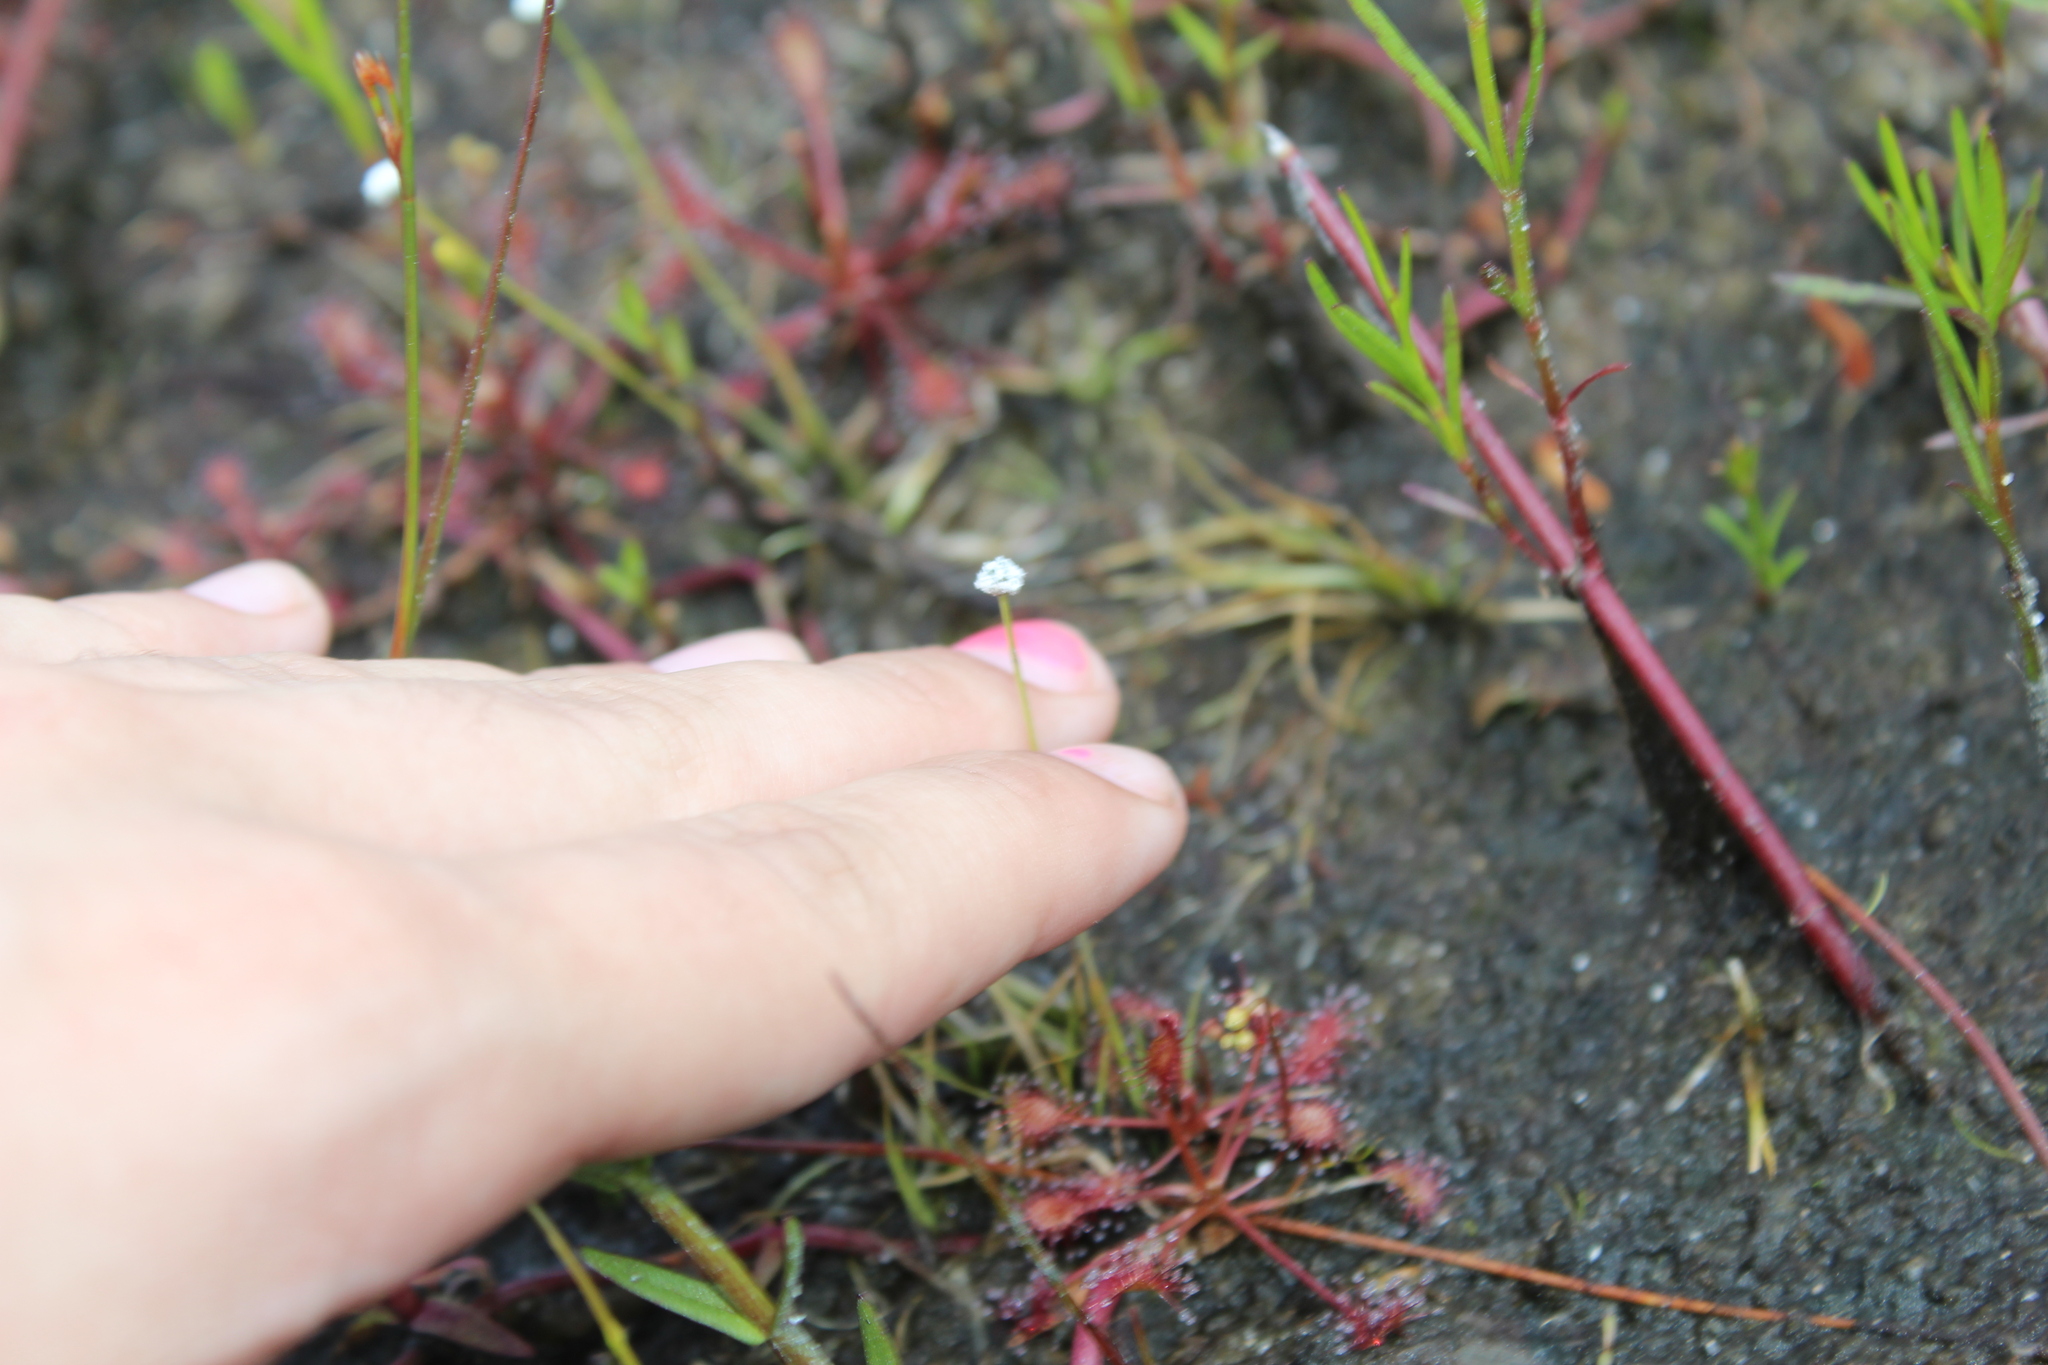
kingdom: Plantae
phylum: Tracheophyta
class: Liliopsida
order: Poales
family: Eriocaulaceae
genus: Eriocaulon
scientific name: Eriocaulon aquaticum
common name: Pipewort
